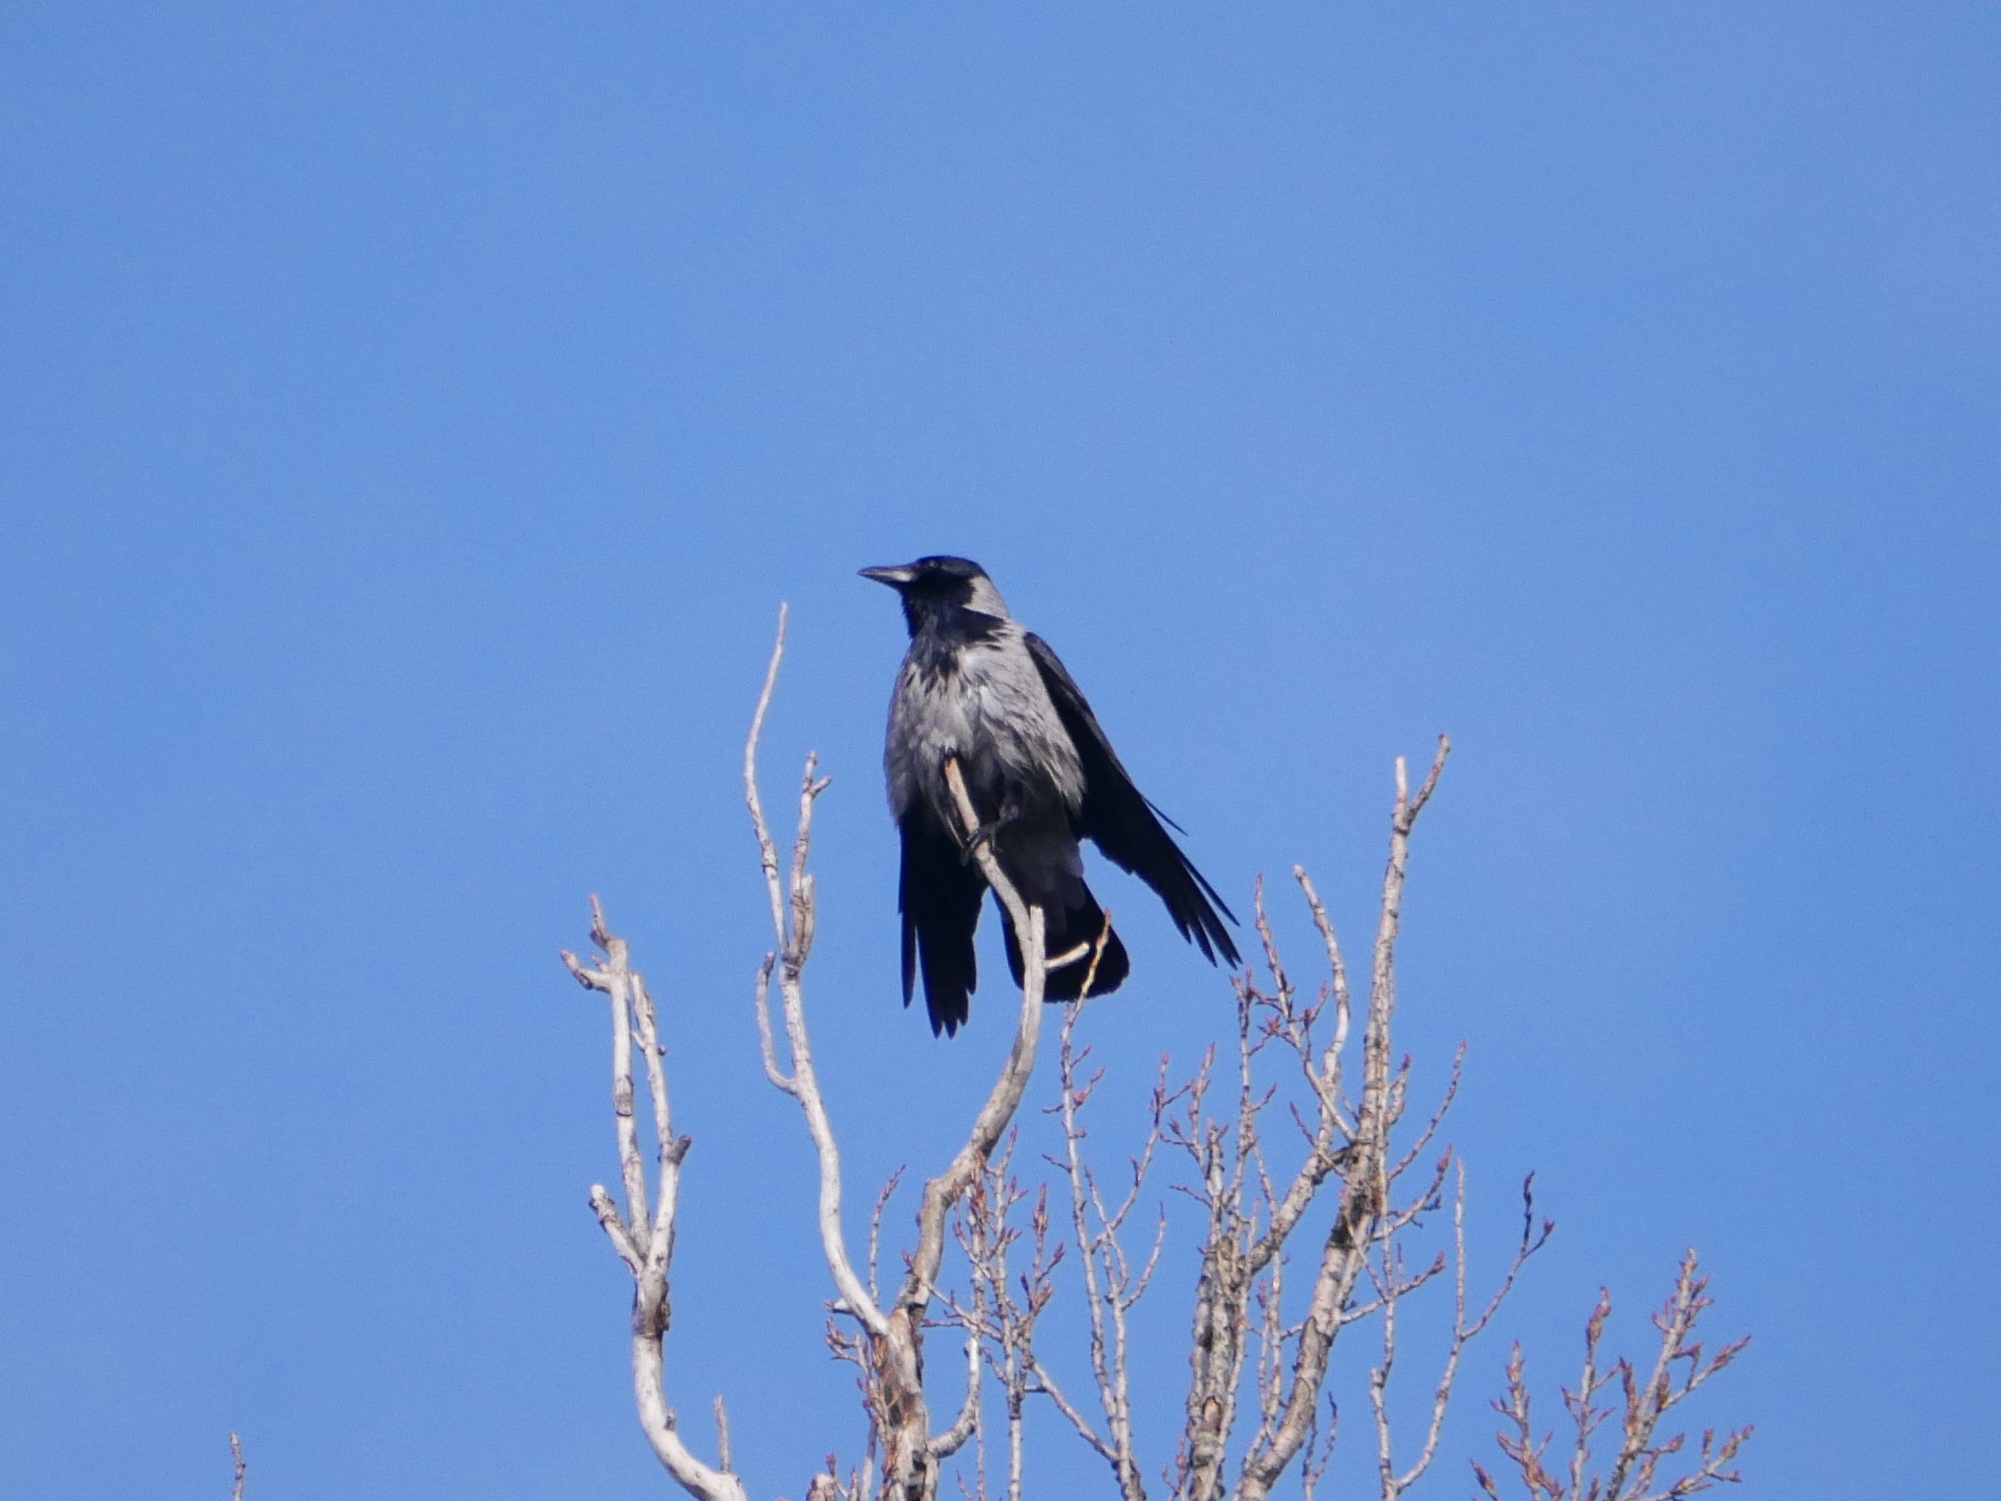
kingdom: Animalia
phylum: Chordata
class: Aves
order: Passeriformes
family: Corvidae
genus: Corvus
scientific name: Corvus cornix
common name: Hooded crow
